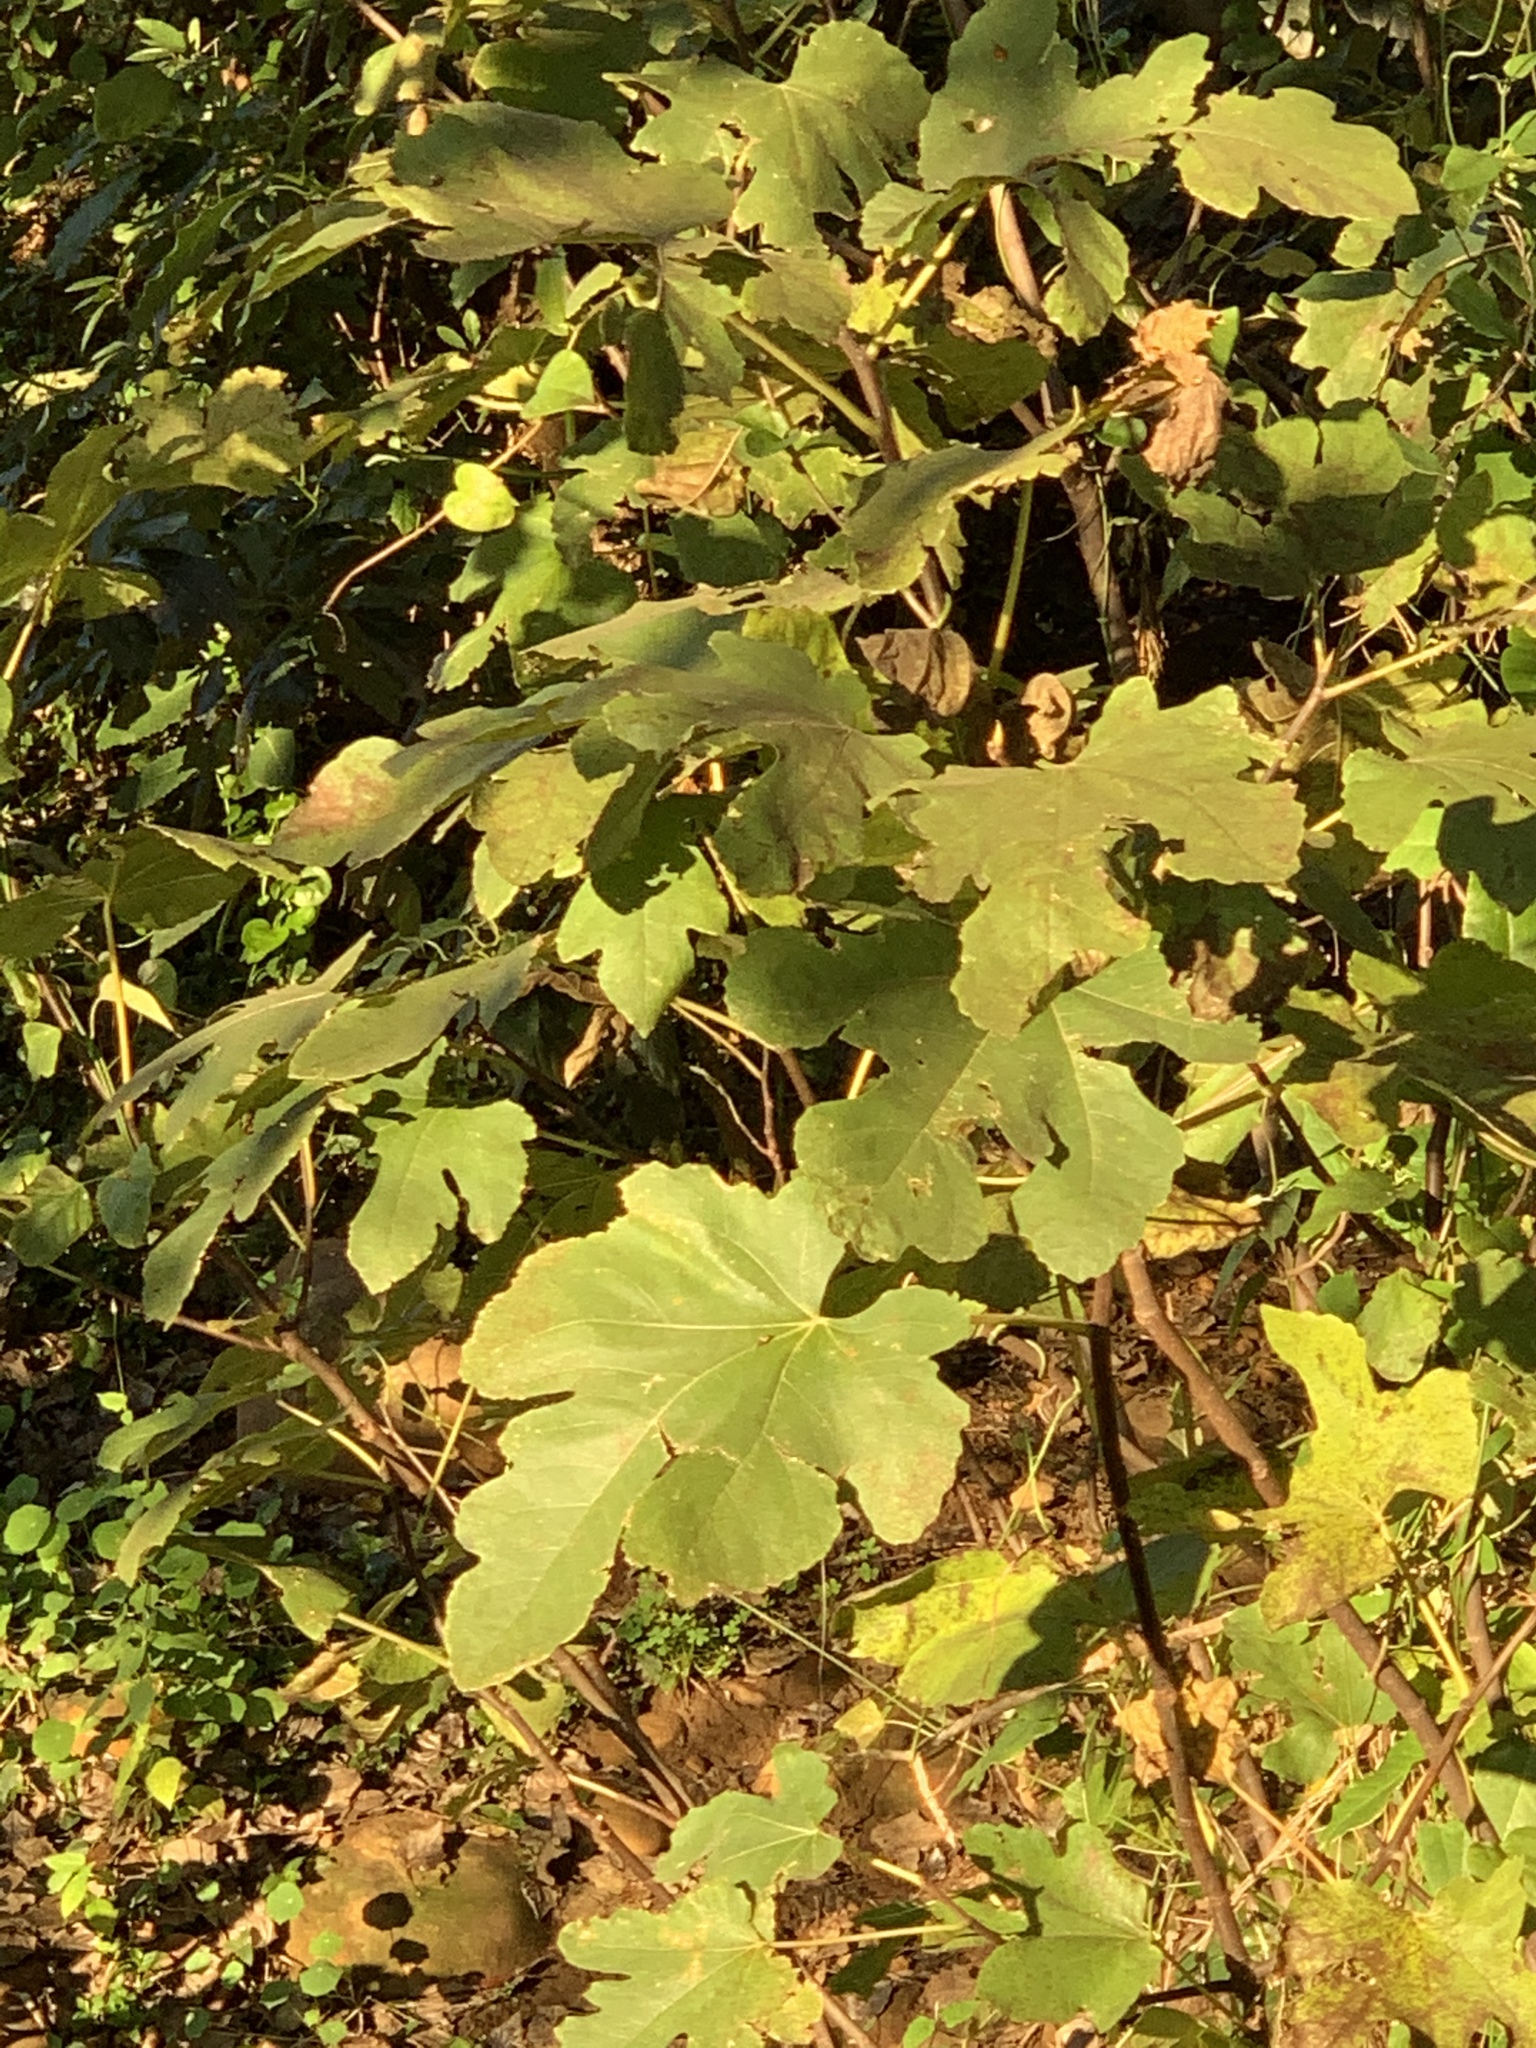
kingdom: Plantae
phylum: Tracheophyta
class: Magnoliopsida
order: Rosales
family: Moraceae
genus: Ficus
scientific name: Ficus carica
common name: Fig
